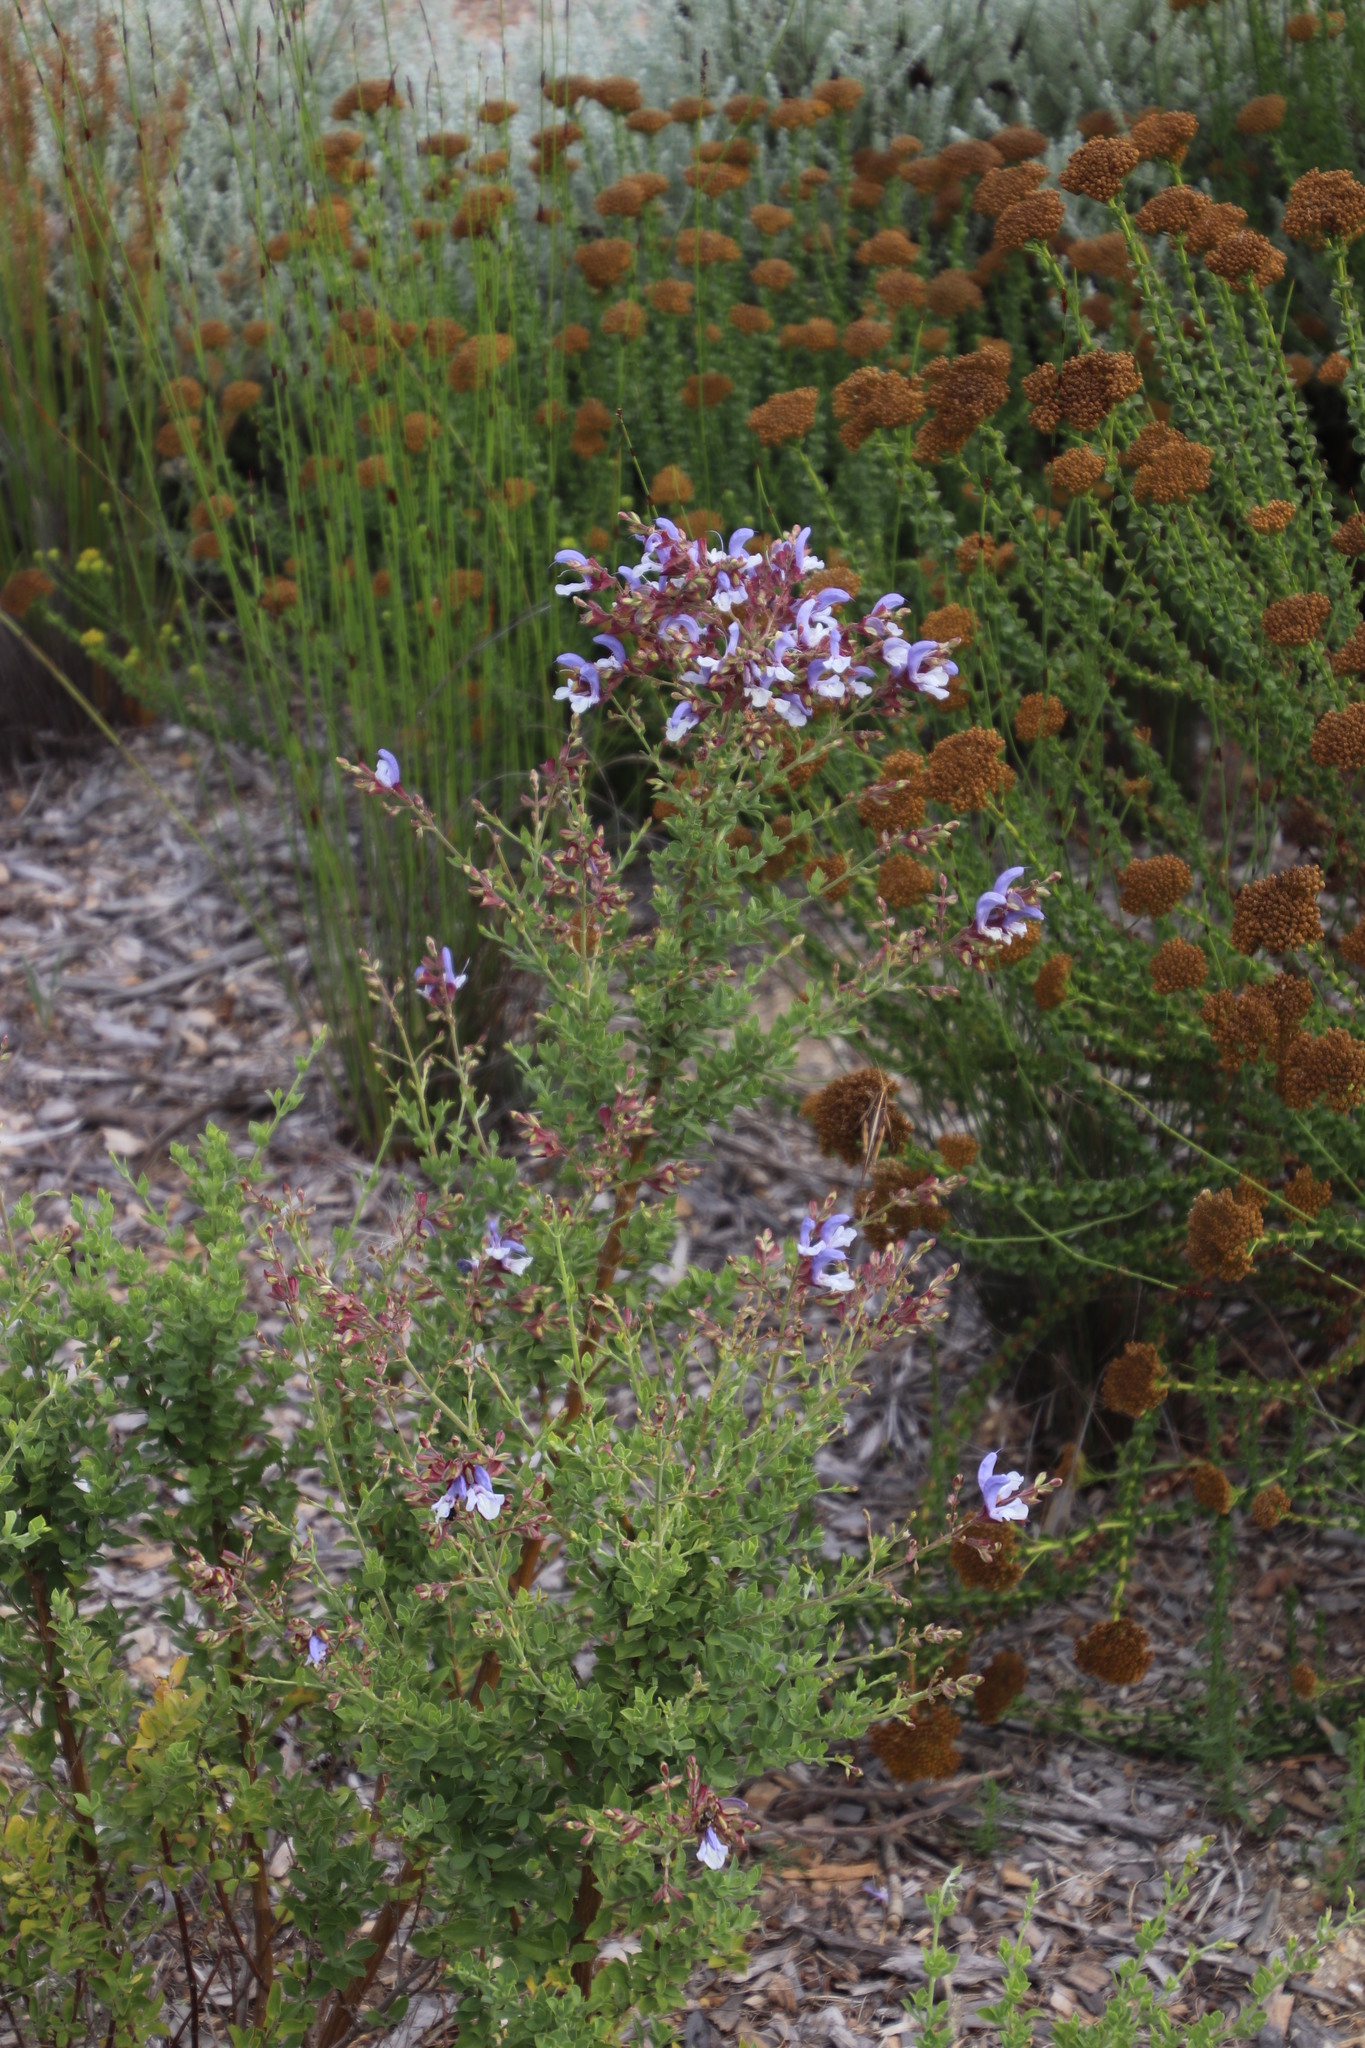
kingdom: Plantae
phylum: Tracheophyta
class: Magnoliopsida
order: Lamiales
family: Lamiaceae
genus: Salvia
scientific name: Salvia chamelaeagnea
